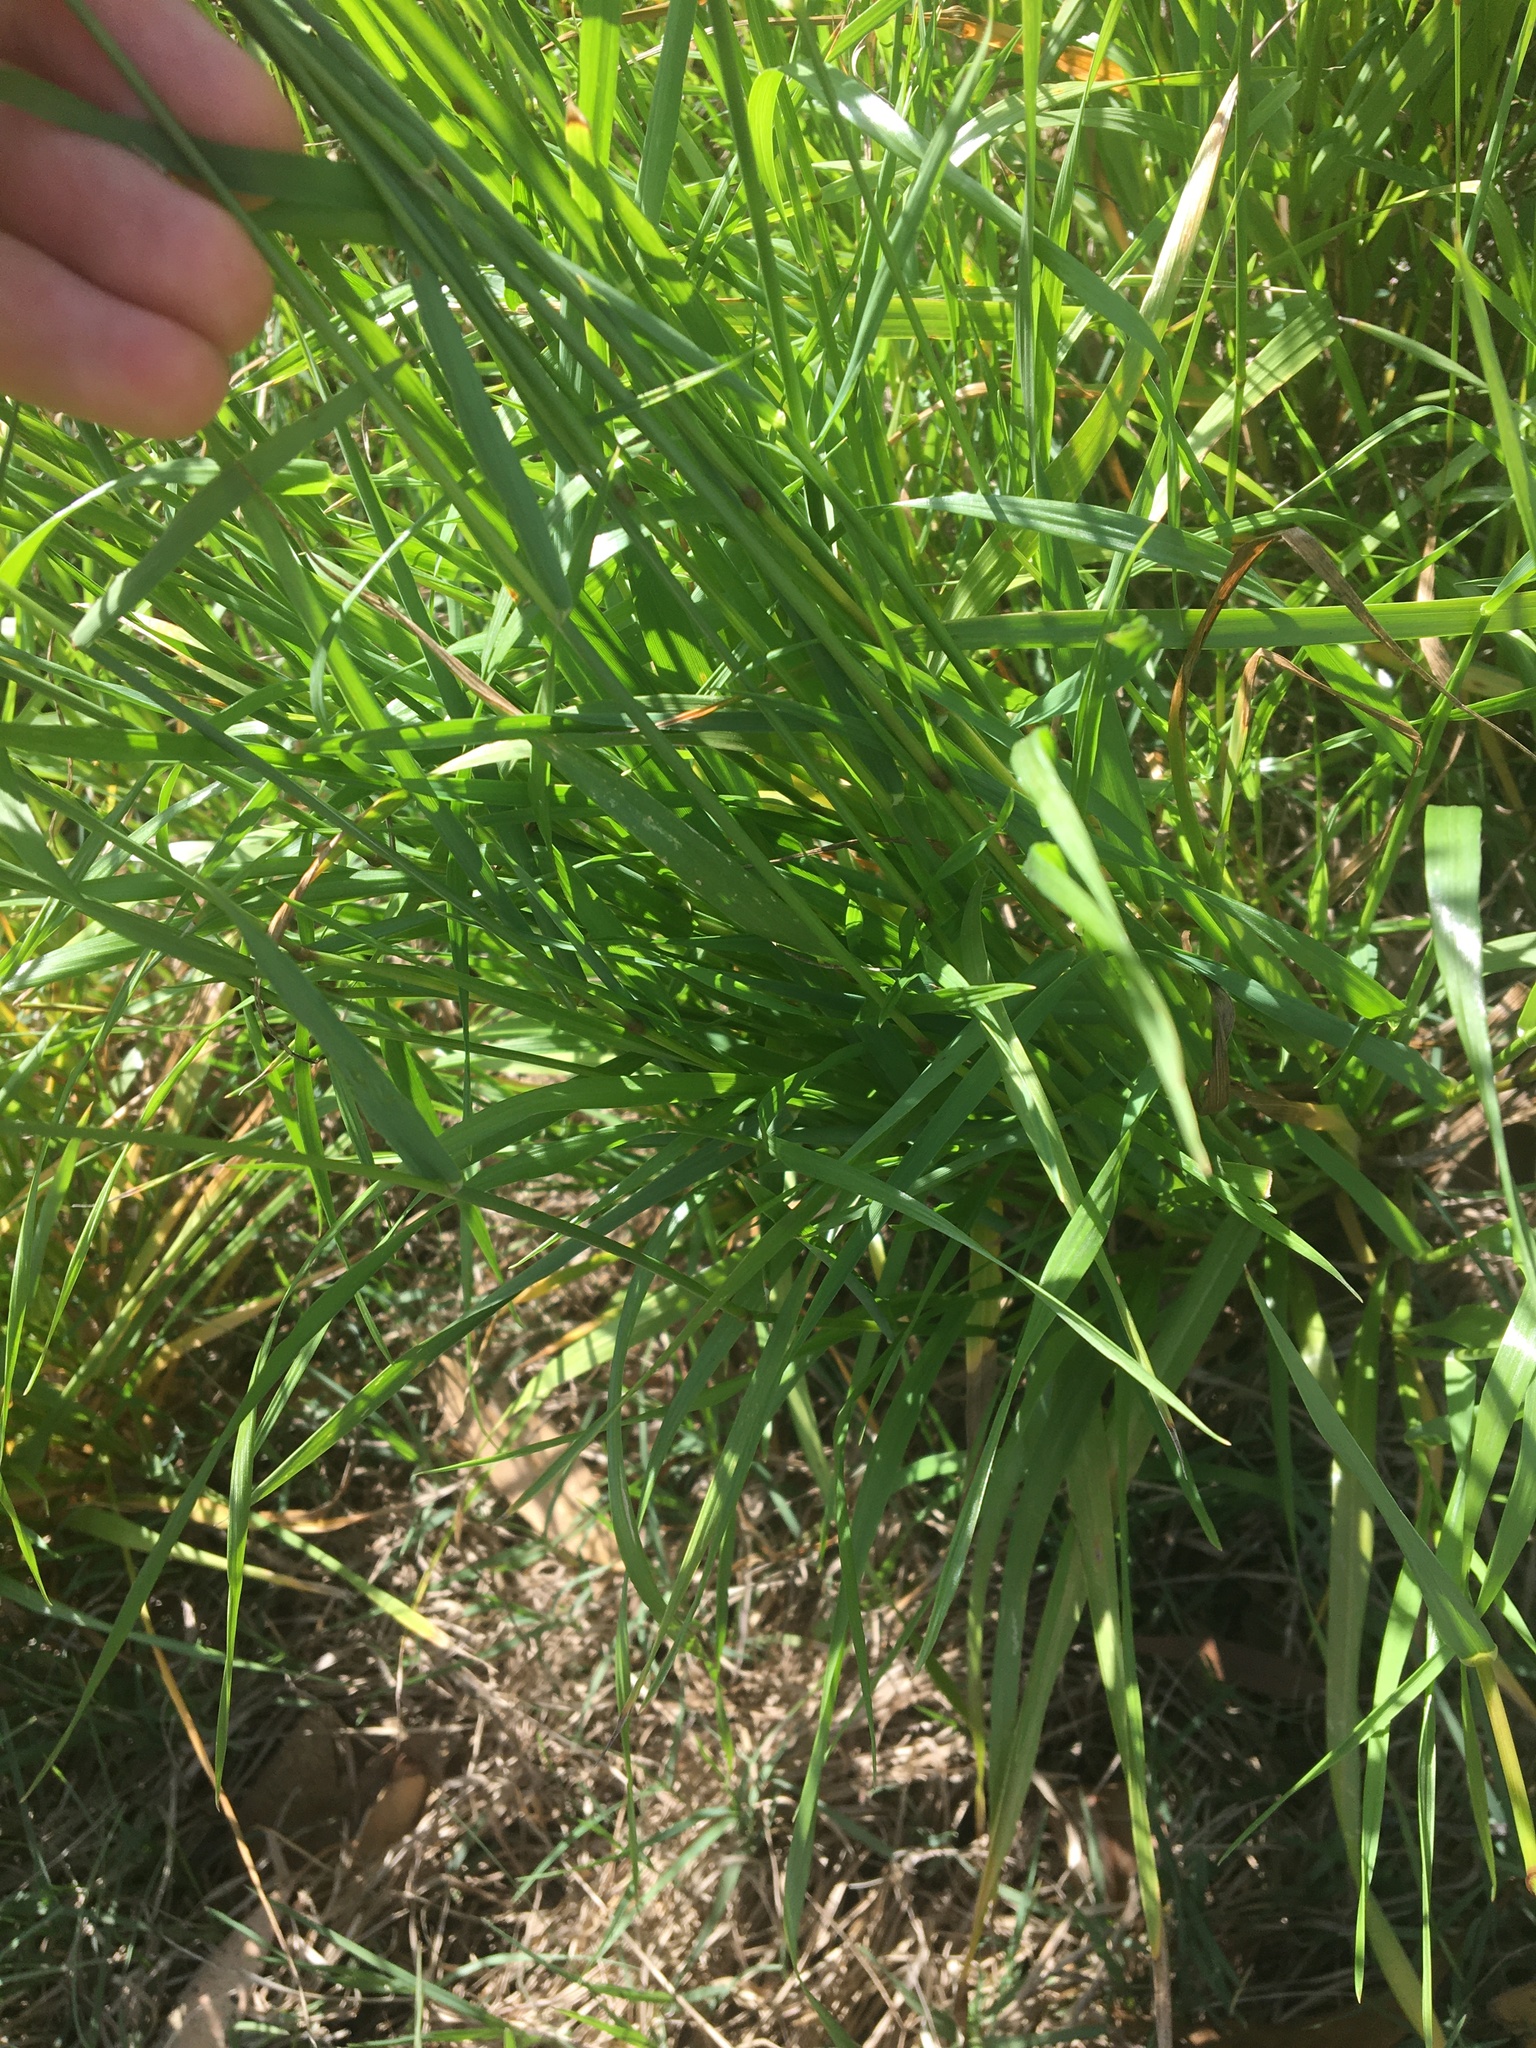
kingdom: Plantae
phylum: Tracheophyta
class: Liliopsida
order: Poales
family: Poaceae
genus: Lolium
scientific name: Lolium perenne
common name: Perennial ryegrass
